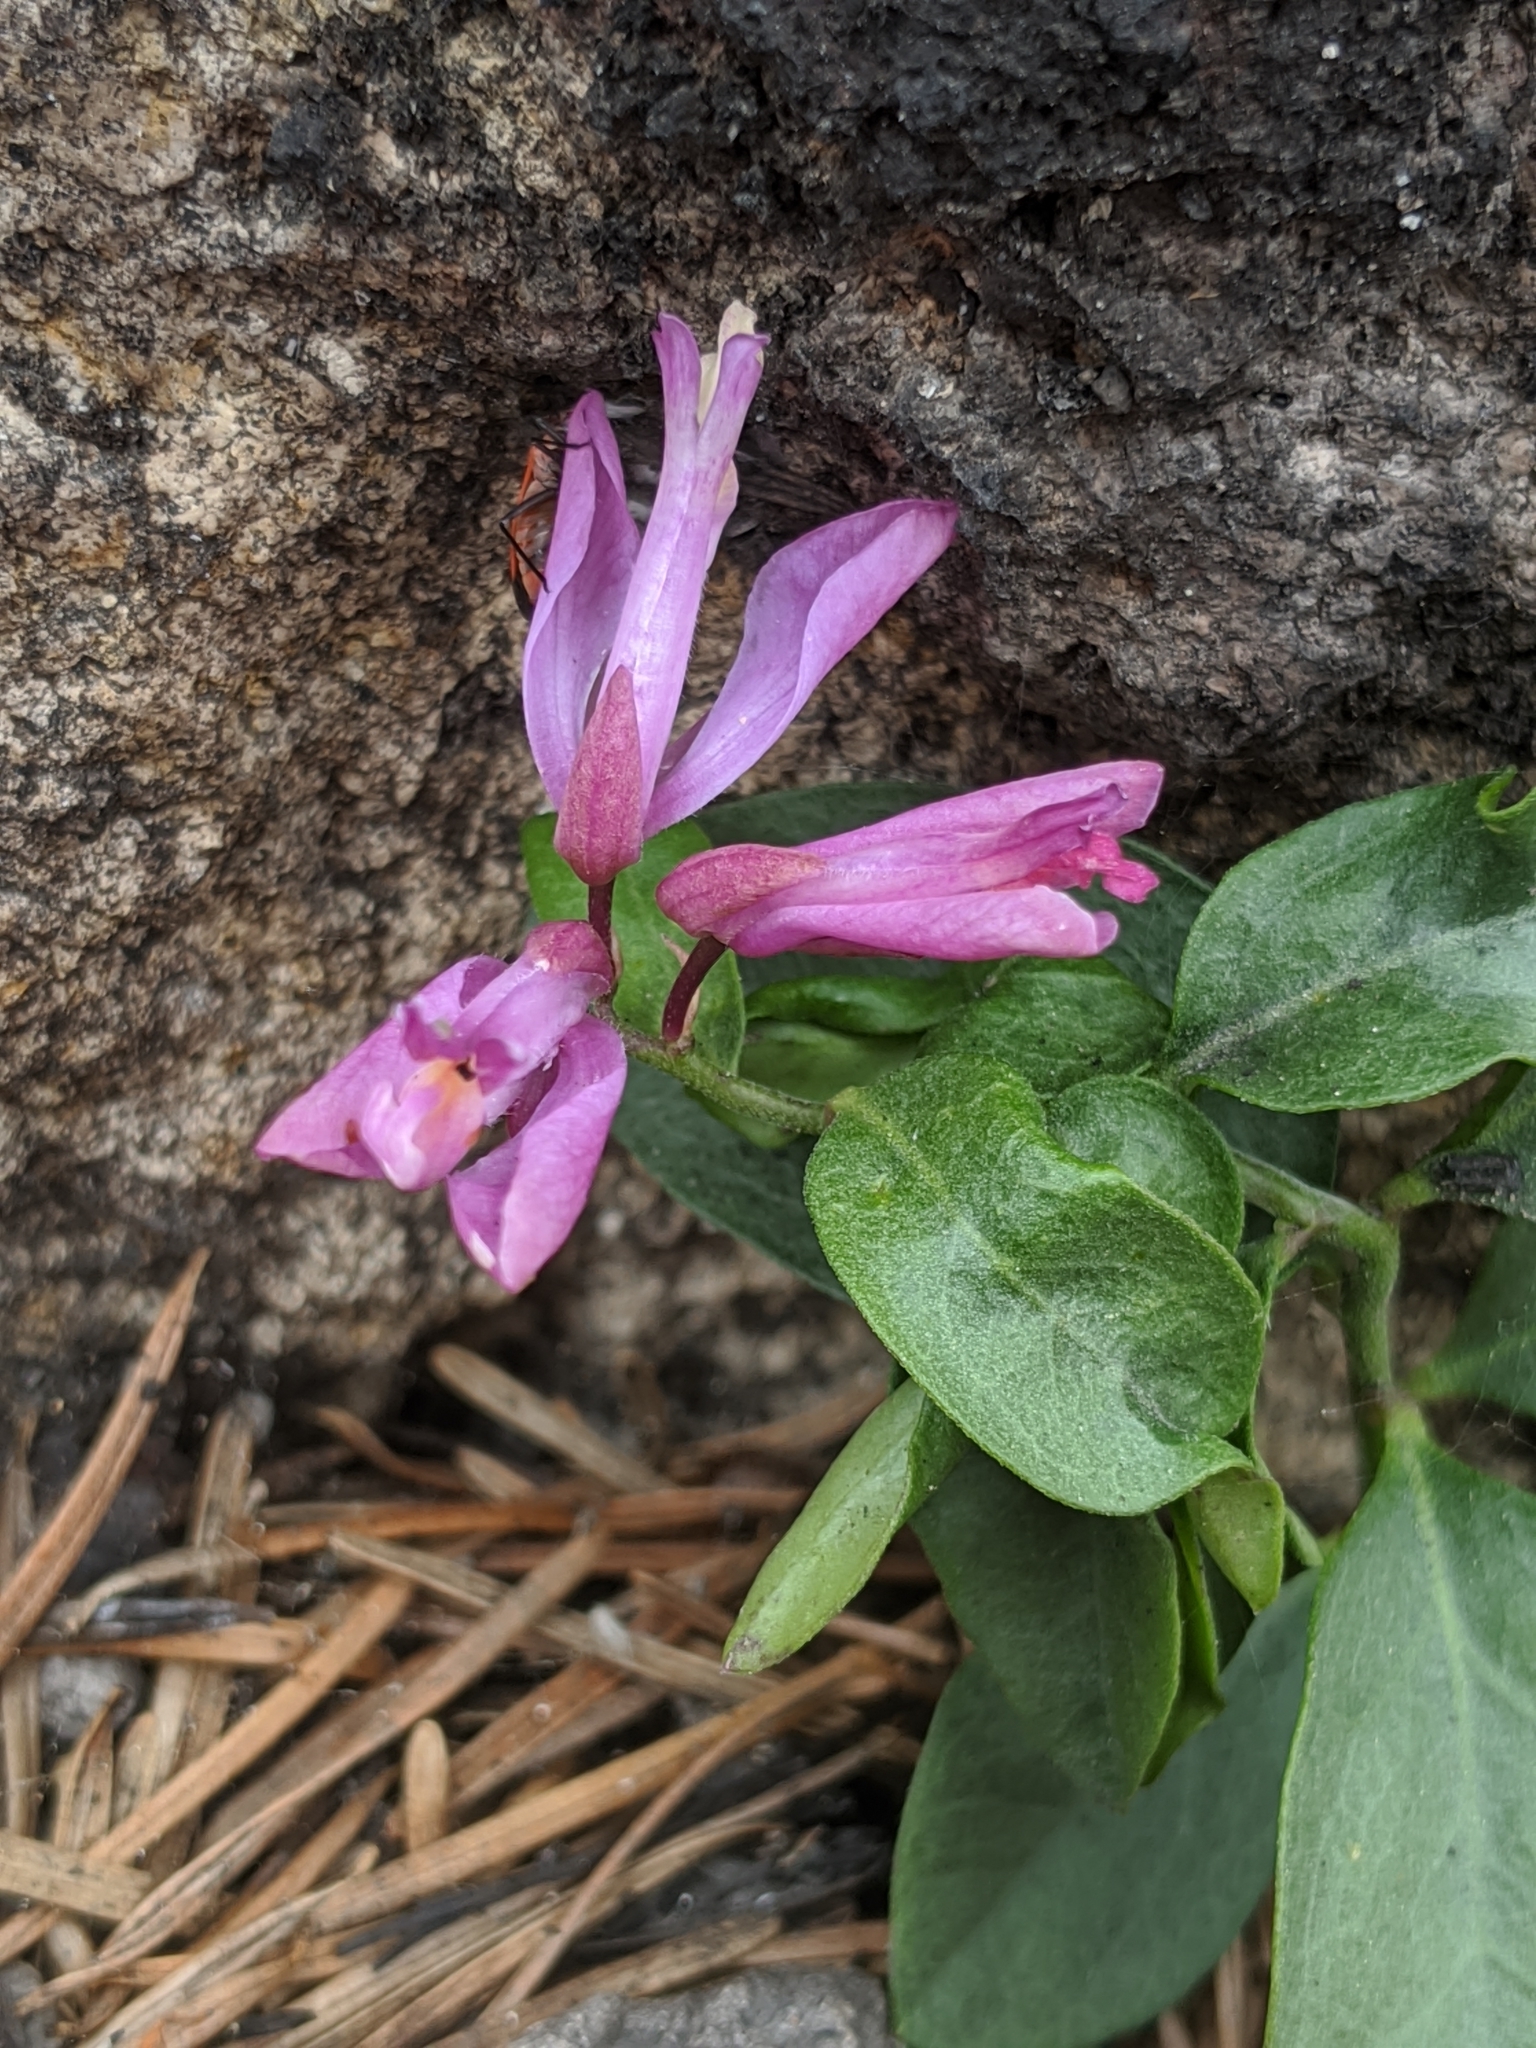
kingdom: Plantae
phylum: Tracheophyta
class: Magnoliopsida
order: Fabales
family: Polygalaceae
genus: Rhinotropis
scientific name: Rhinotropis californica
